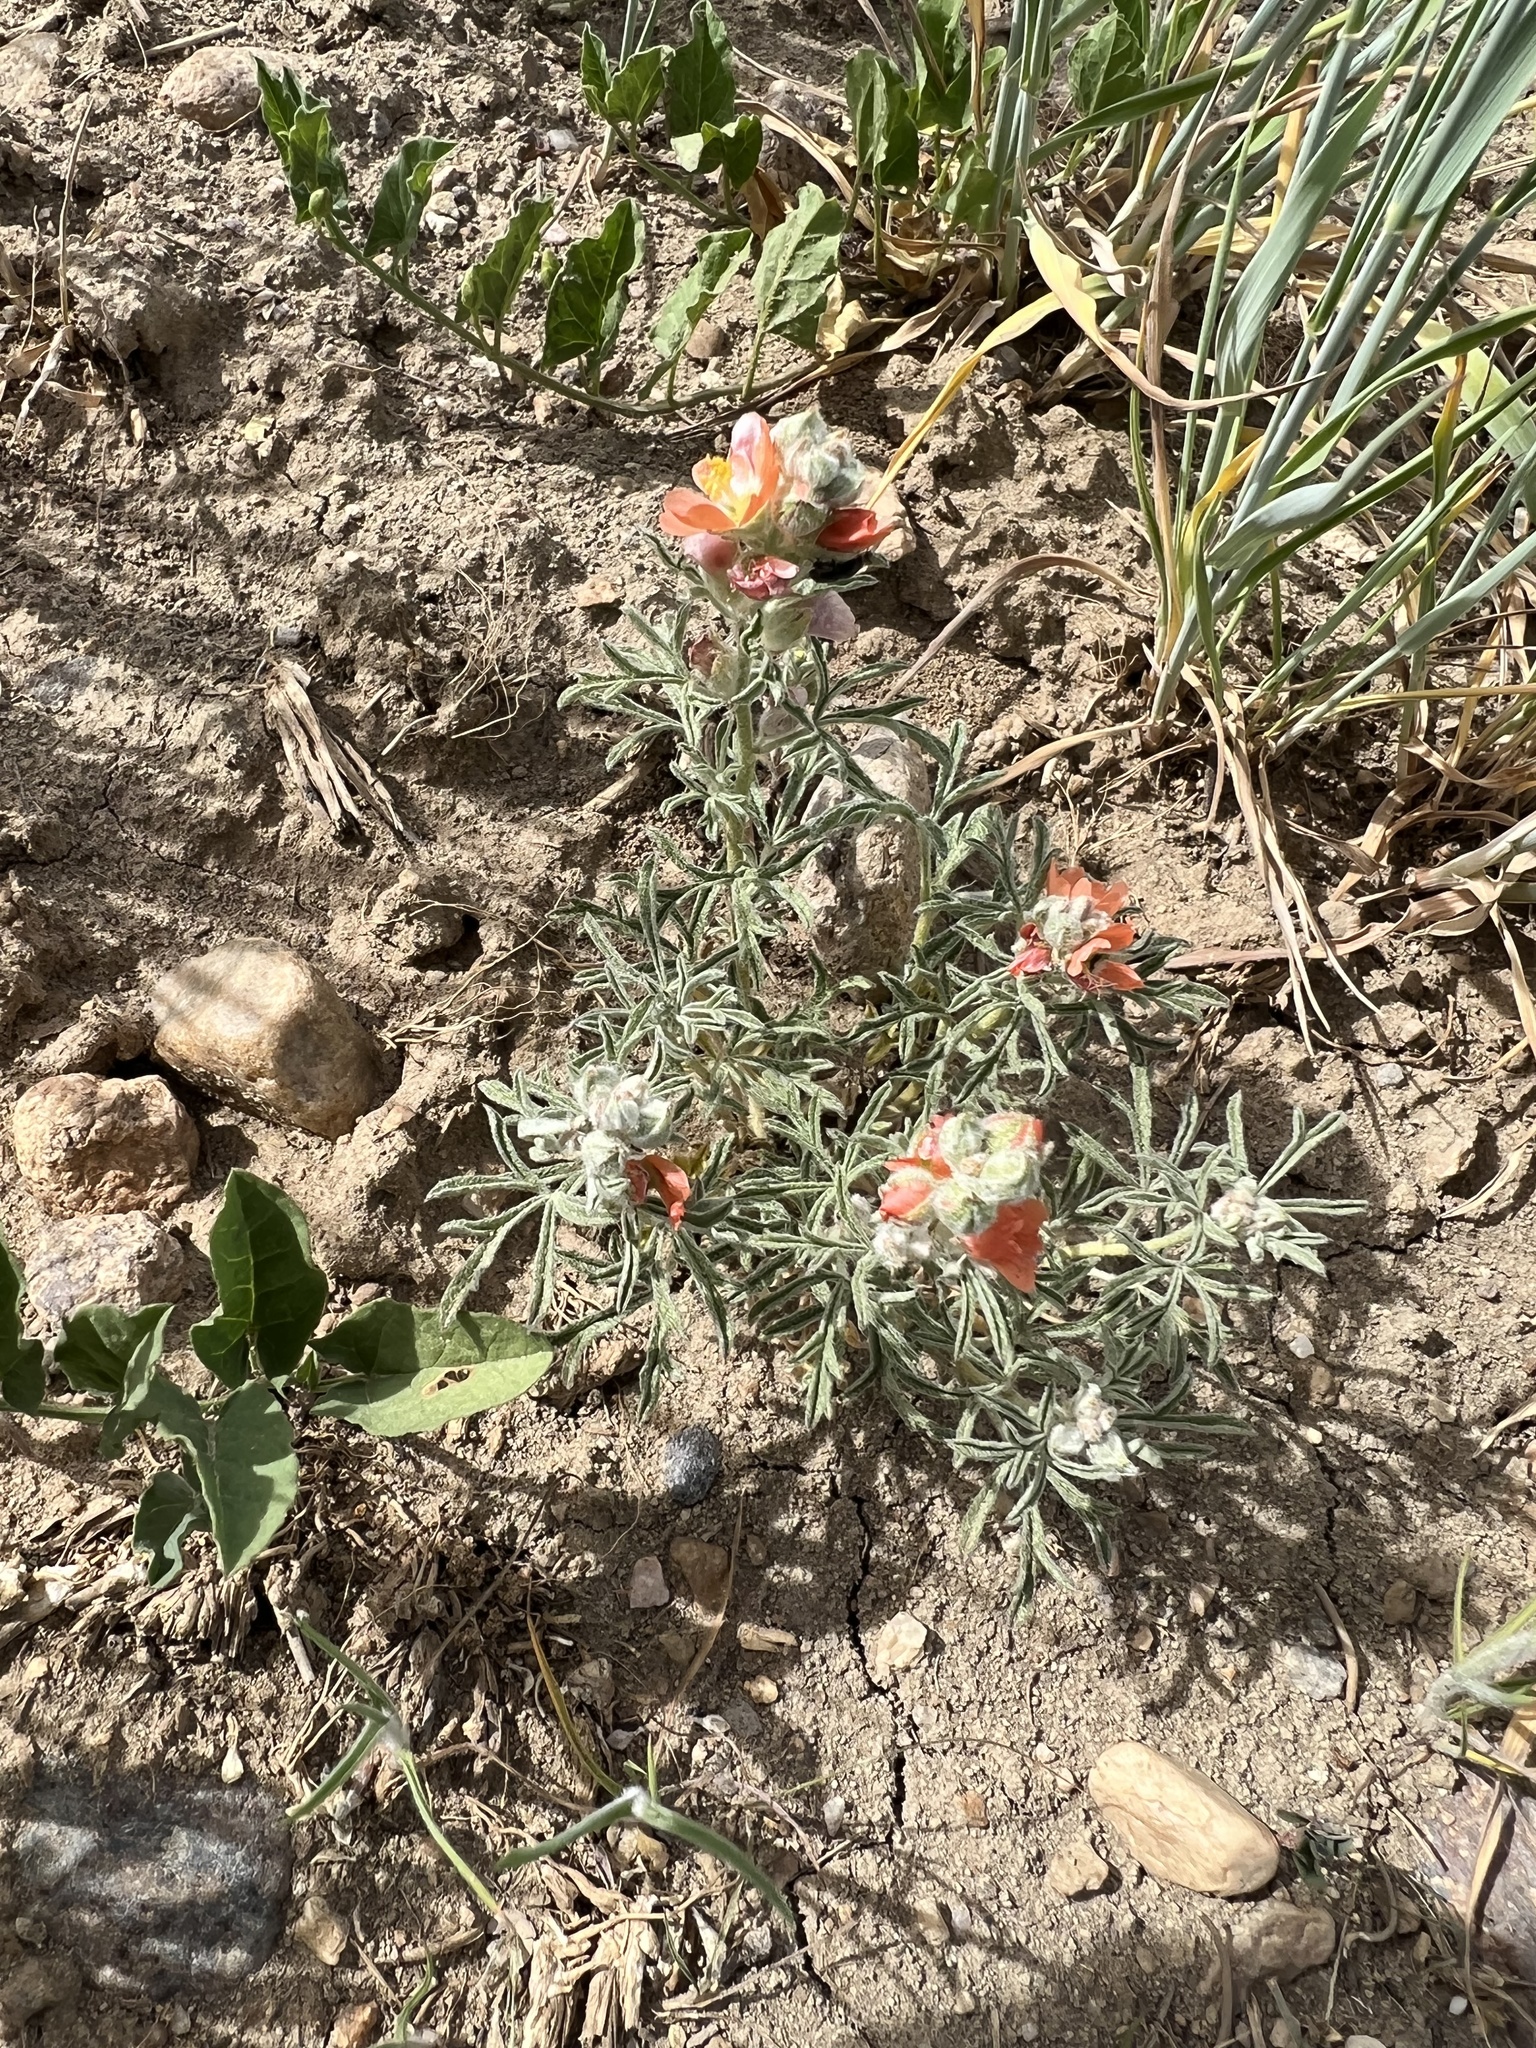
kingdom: Plantae
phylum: Tracheophyta
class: Magnoliopsida
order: Malvales
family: Malvaceae
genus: Sphaeralcea
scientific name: Sphaeralcea coccinea
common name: Moss-rose
